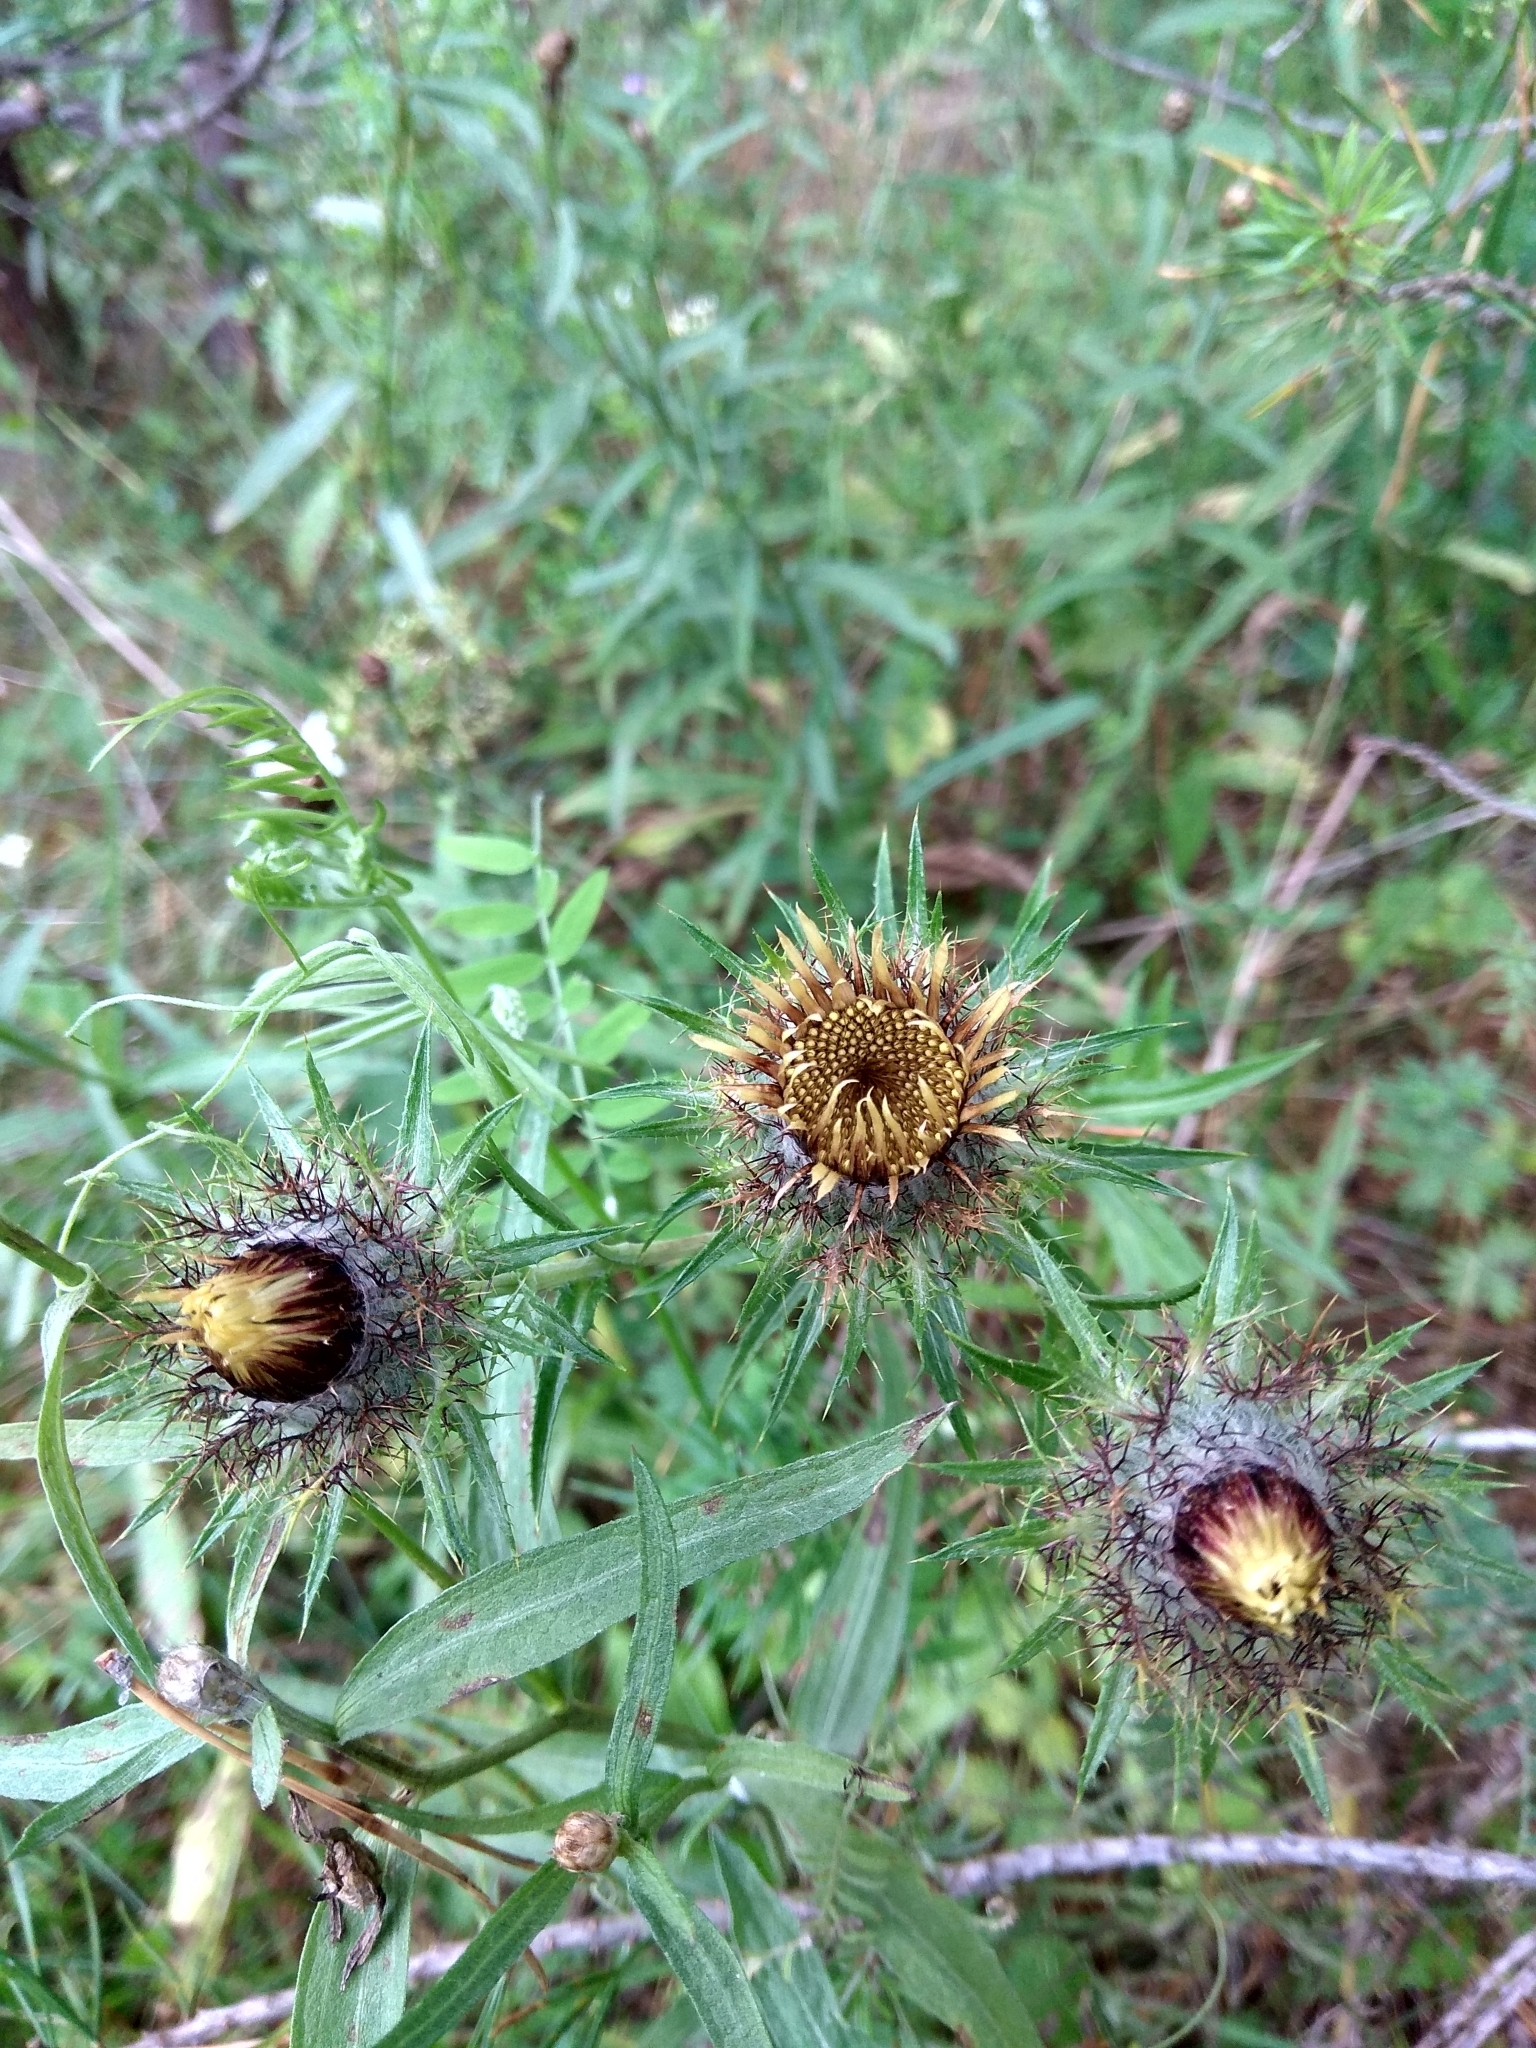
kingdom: Plantae
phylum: Tracheophyta
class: Magnoliopsida
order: Asterales
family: Asteraceae
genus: Carlina
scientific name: Carlina biebersteinii
